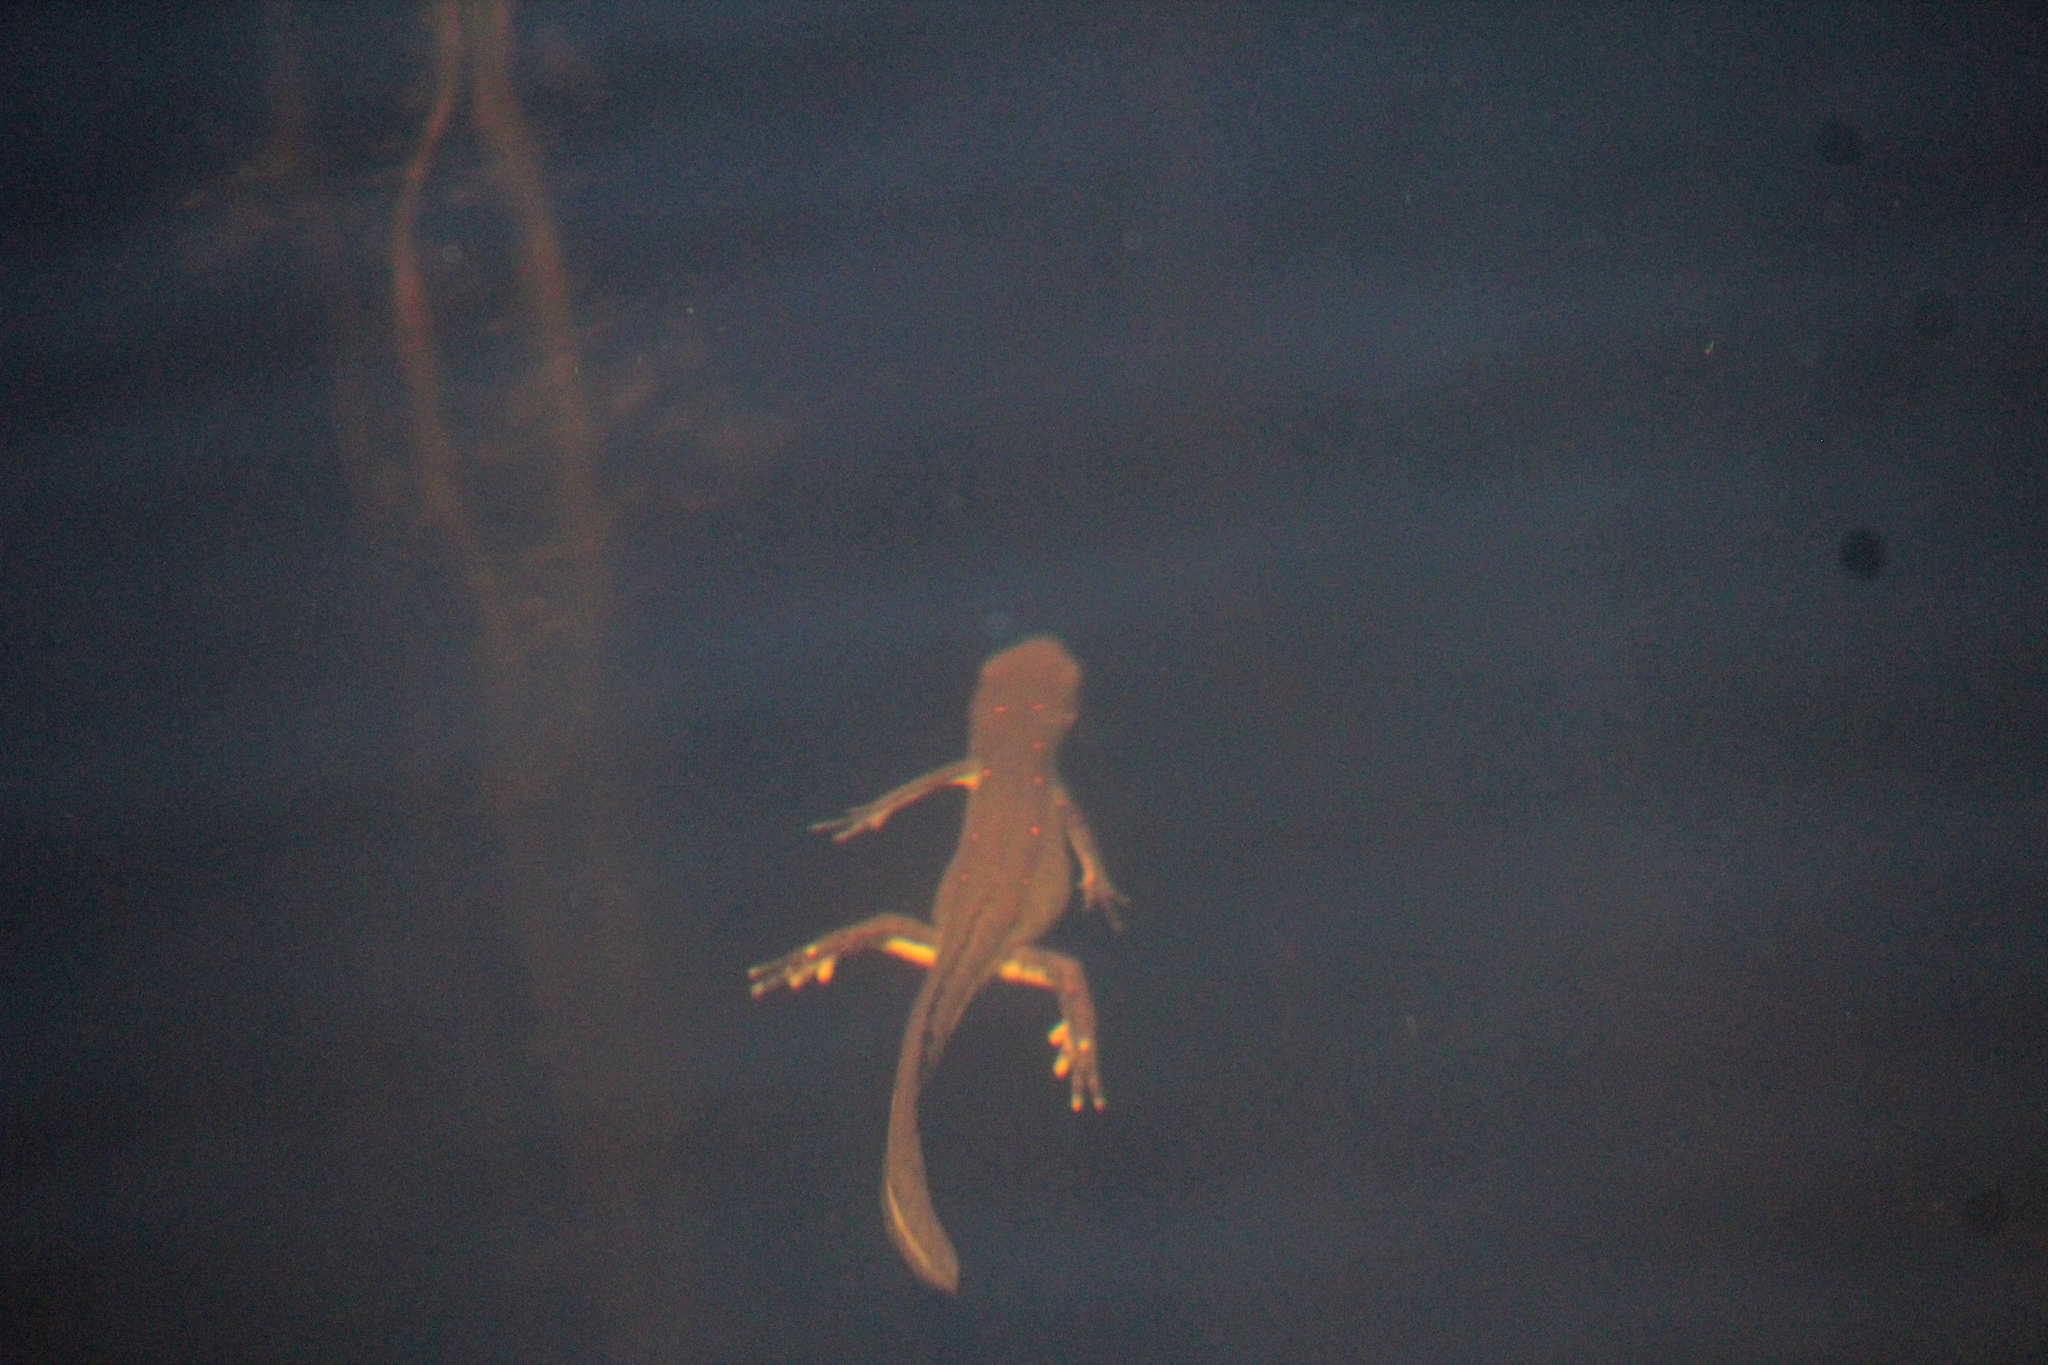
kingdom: Animalia
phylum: Chordata
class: Amphibia
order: Caudata
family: Salamandridae
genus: Notophthalmus
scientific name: Notophthalmus viridescens
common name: Eastern newt
